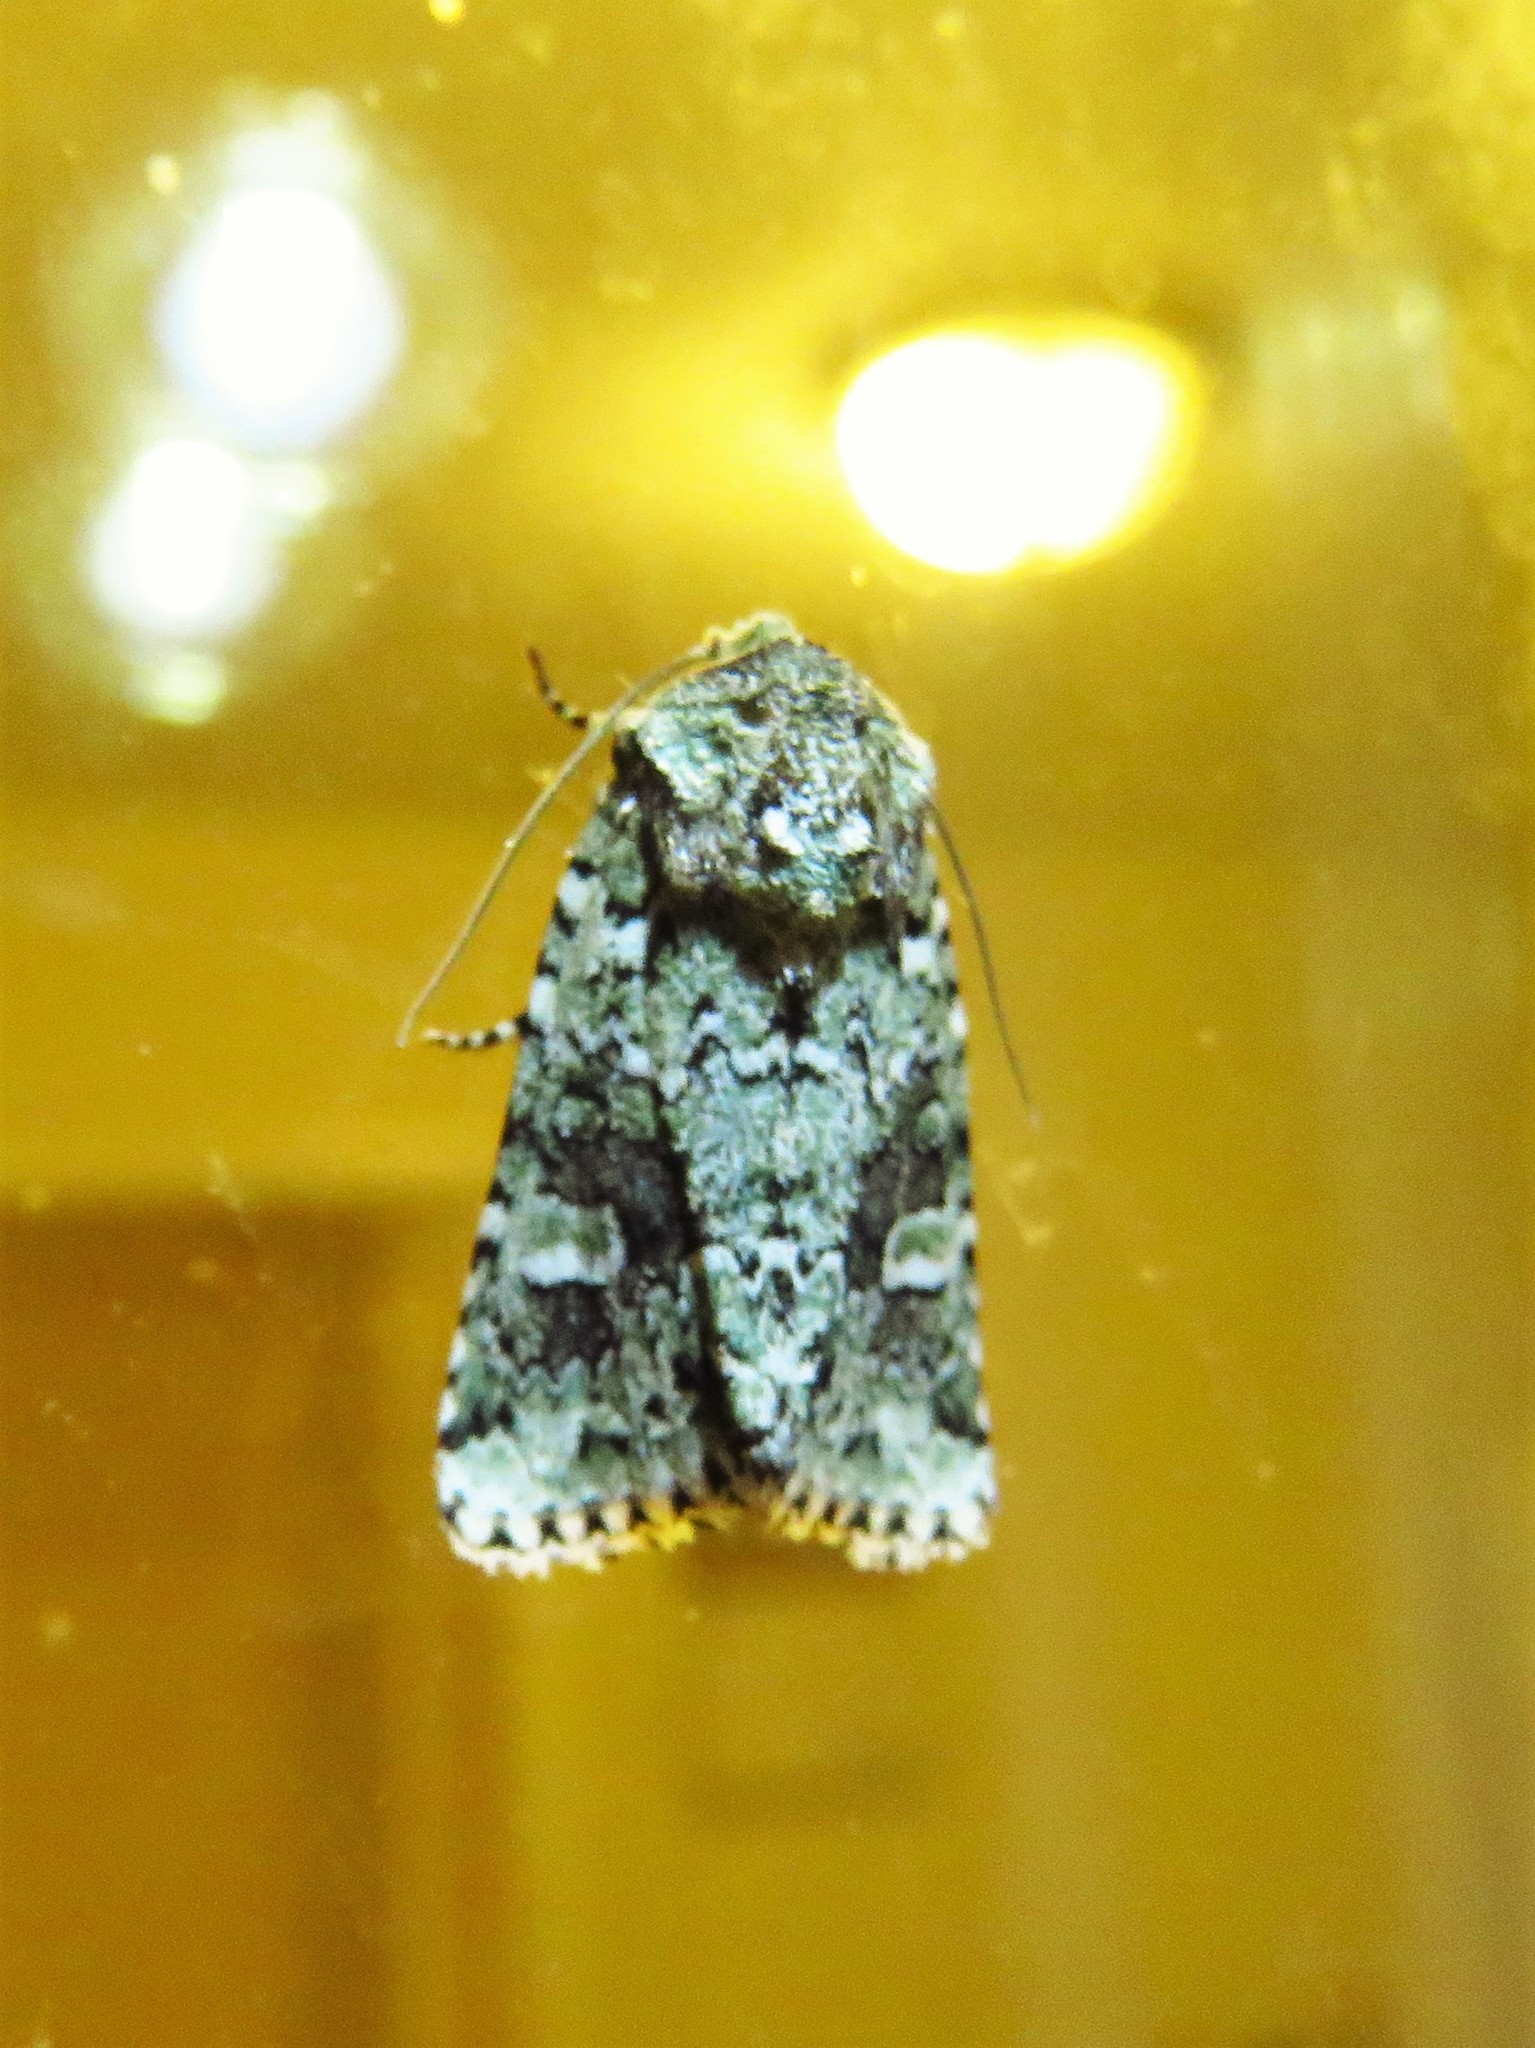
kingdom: Animalia
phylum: Arthropoda
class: Insecta
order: Lepidoptera
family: Noctuidae
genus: Lacinipolia
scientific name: Lacinipolia laudabilis
